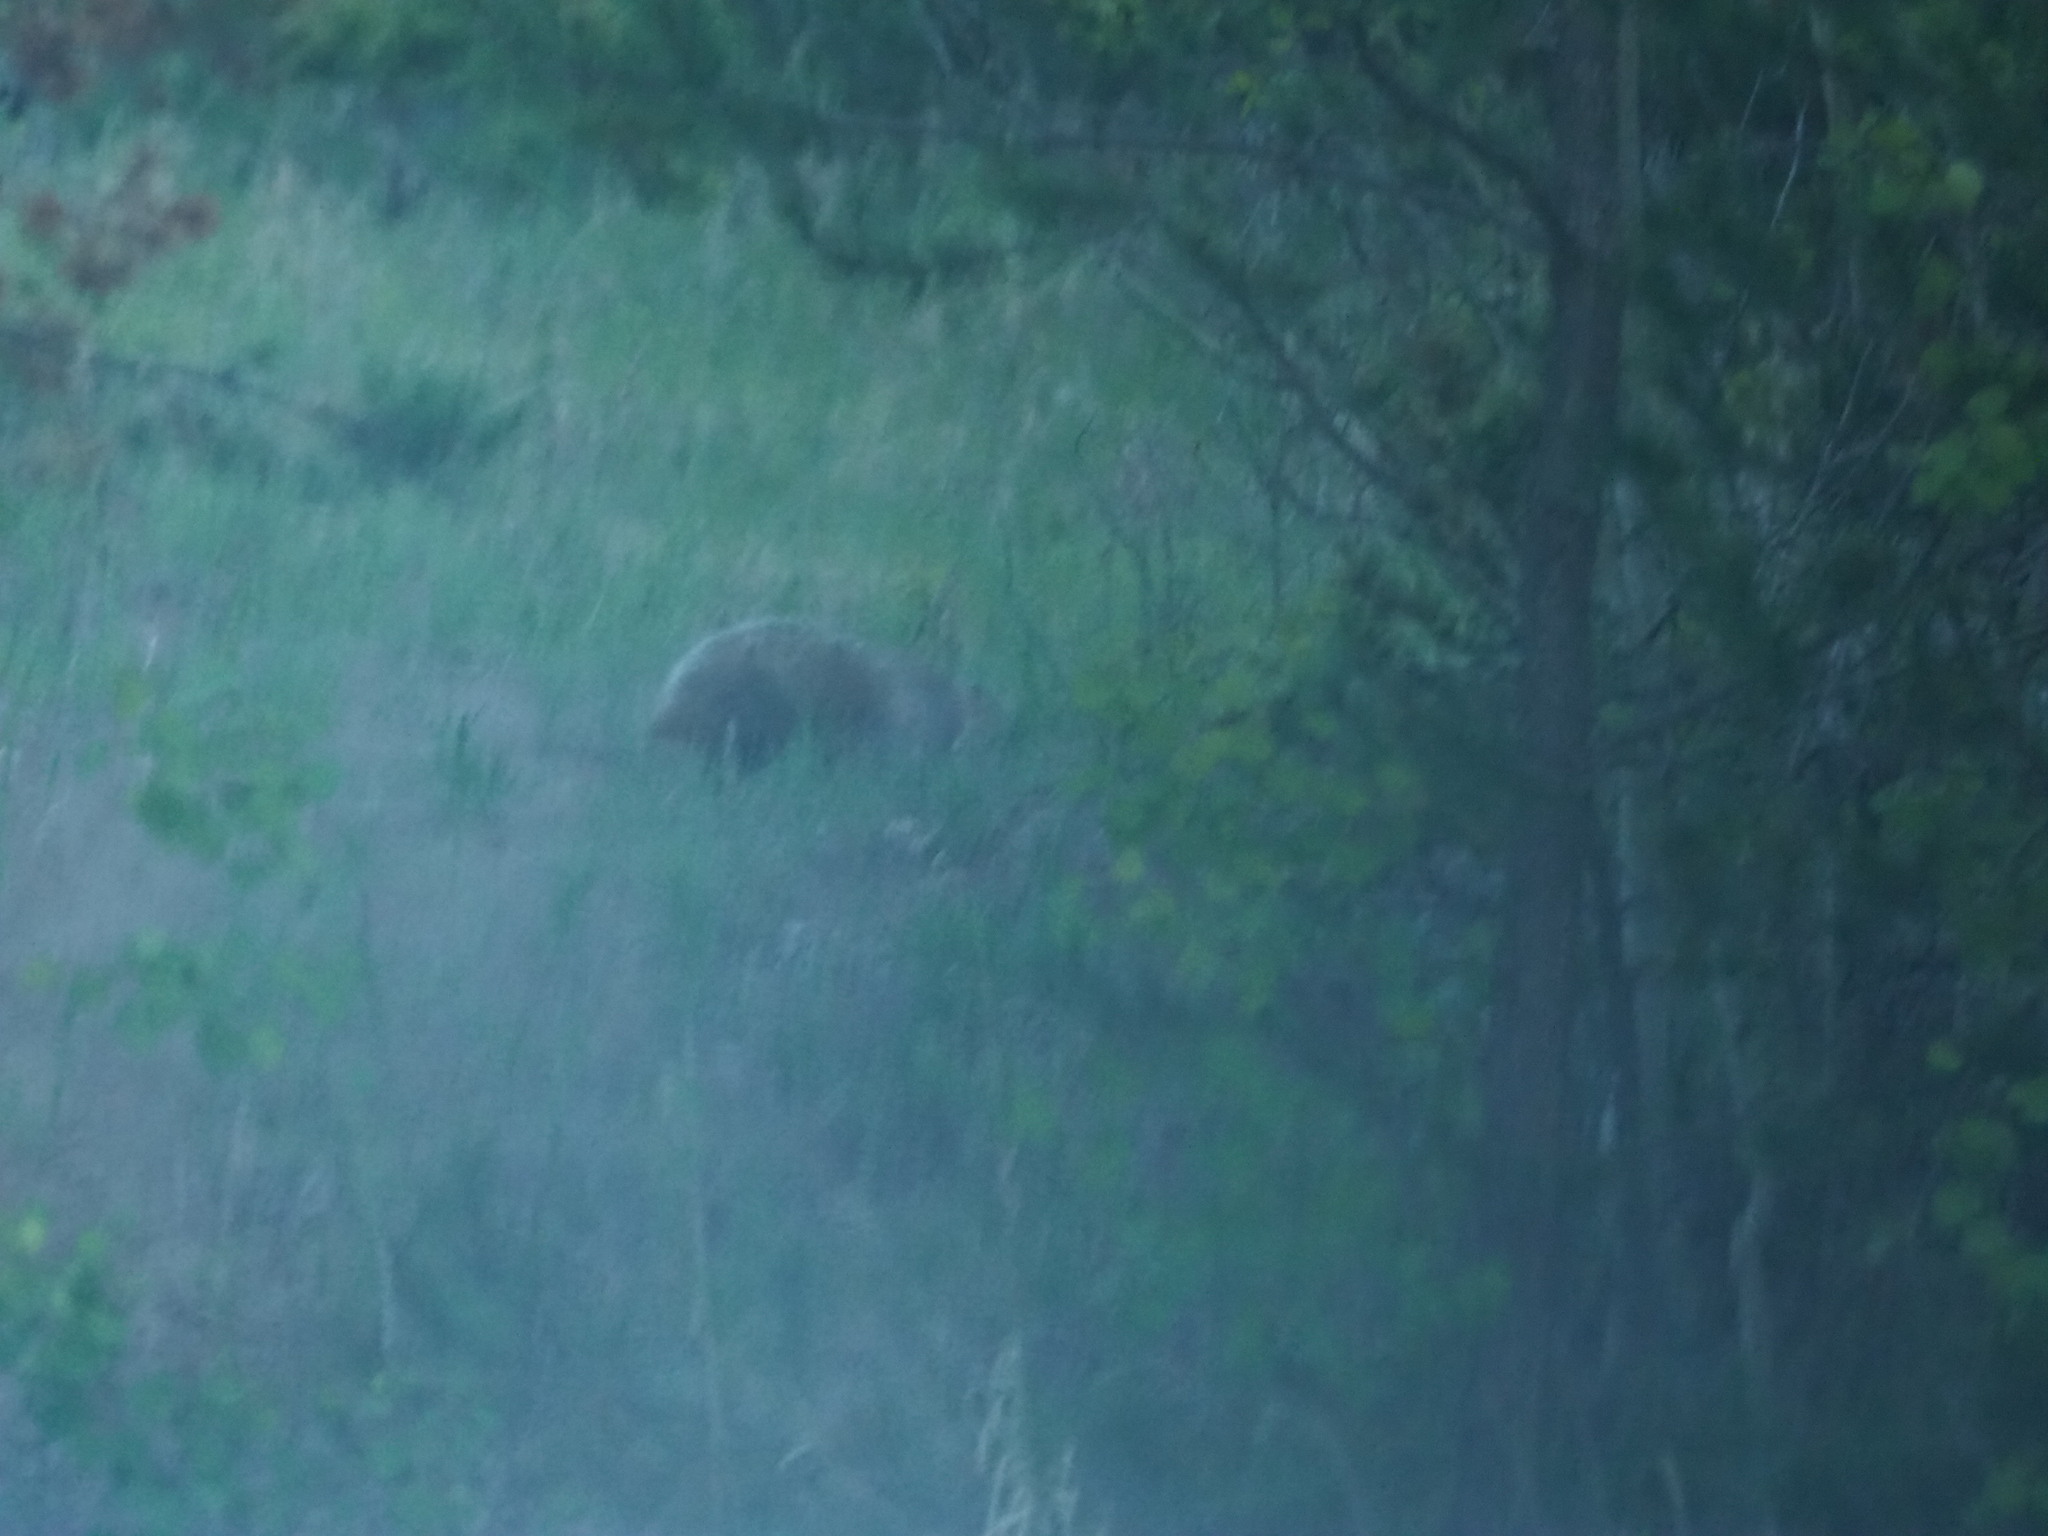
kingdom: Animalia
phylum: Chordata
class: Mammalia
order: Carnivora
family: Mustelidae
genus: Taxidea
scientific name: Taxidea taxus
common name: American badger
